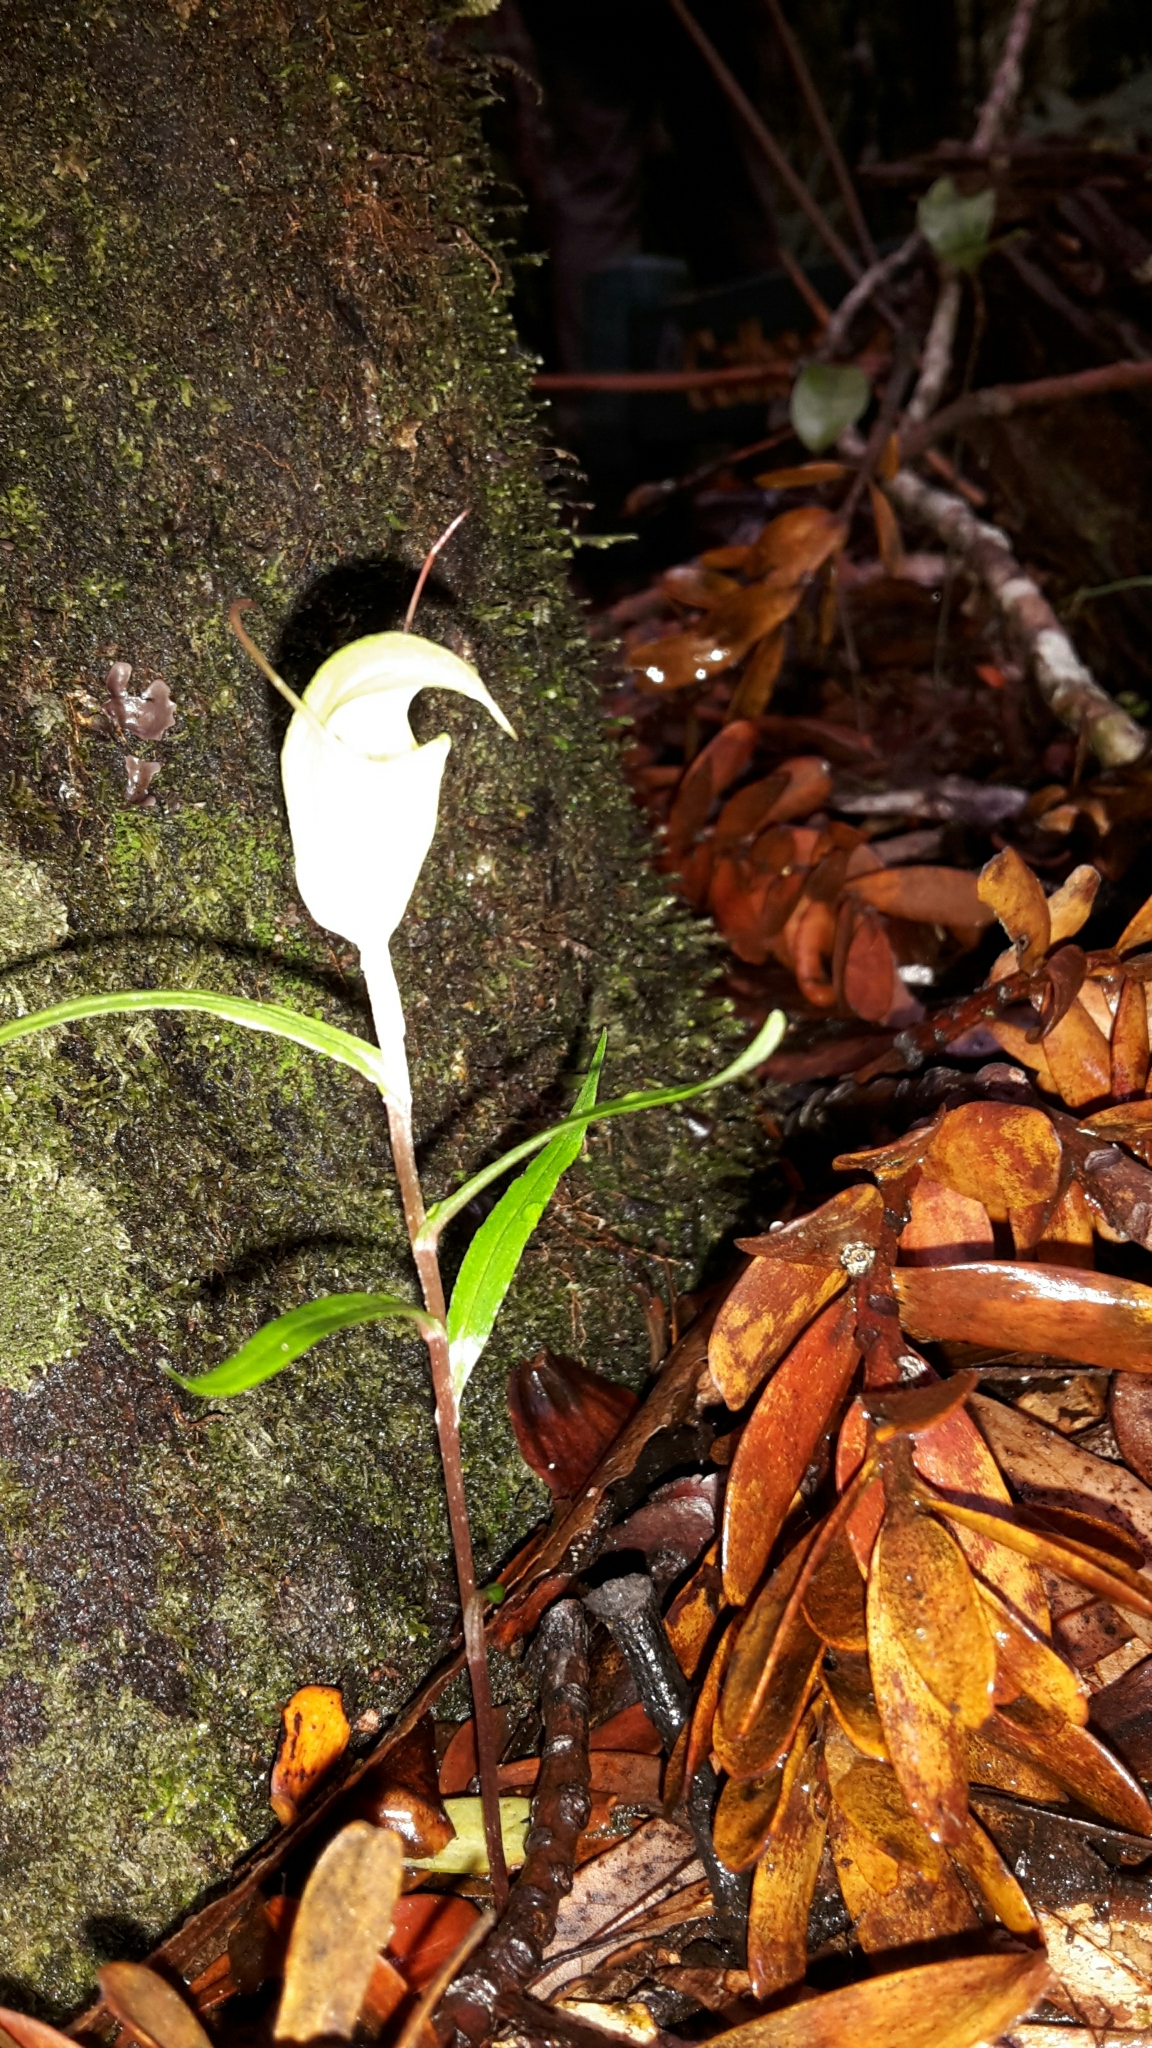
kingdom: Plantae
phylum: Tracheophyta
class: Liliopsida
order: Asparagales
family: Orchidaceae
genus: Pterostylis
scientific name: Pterostylis brumalis
